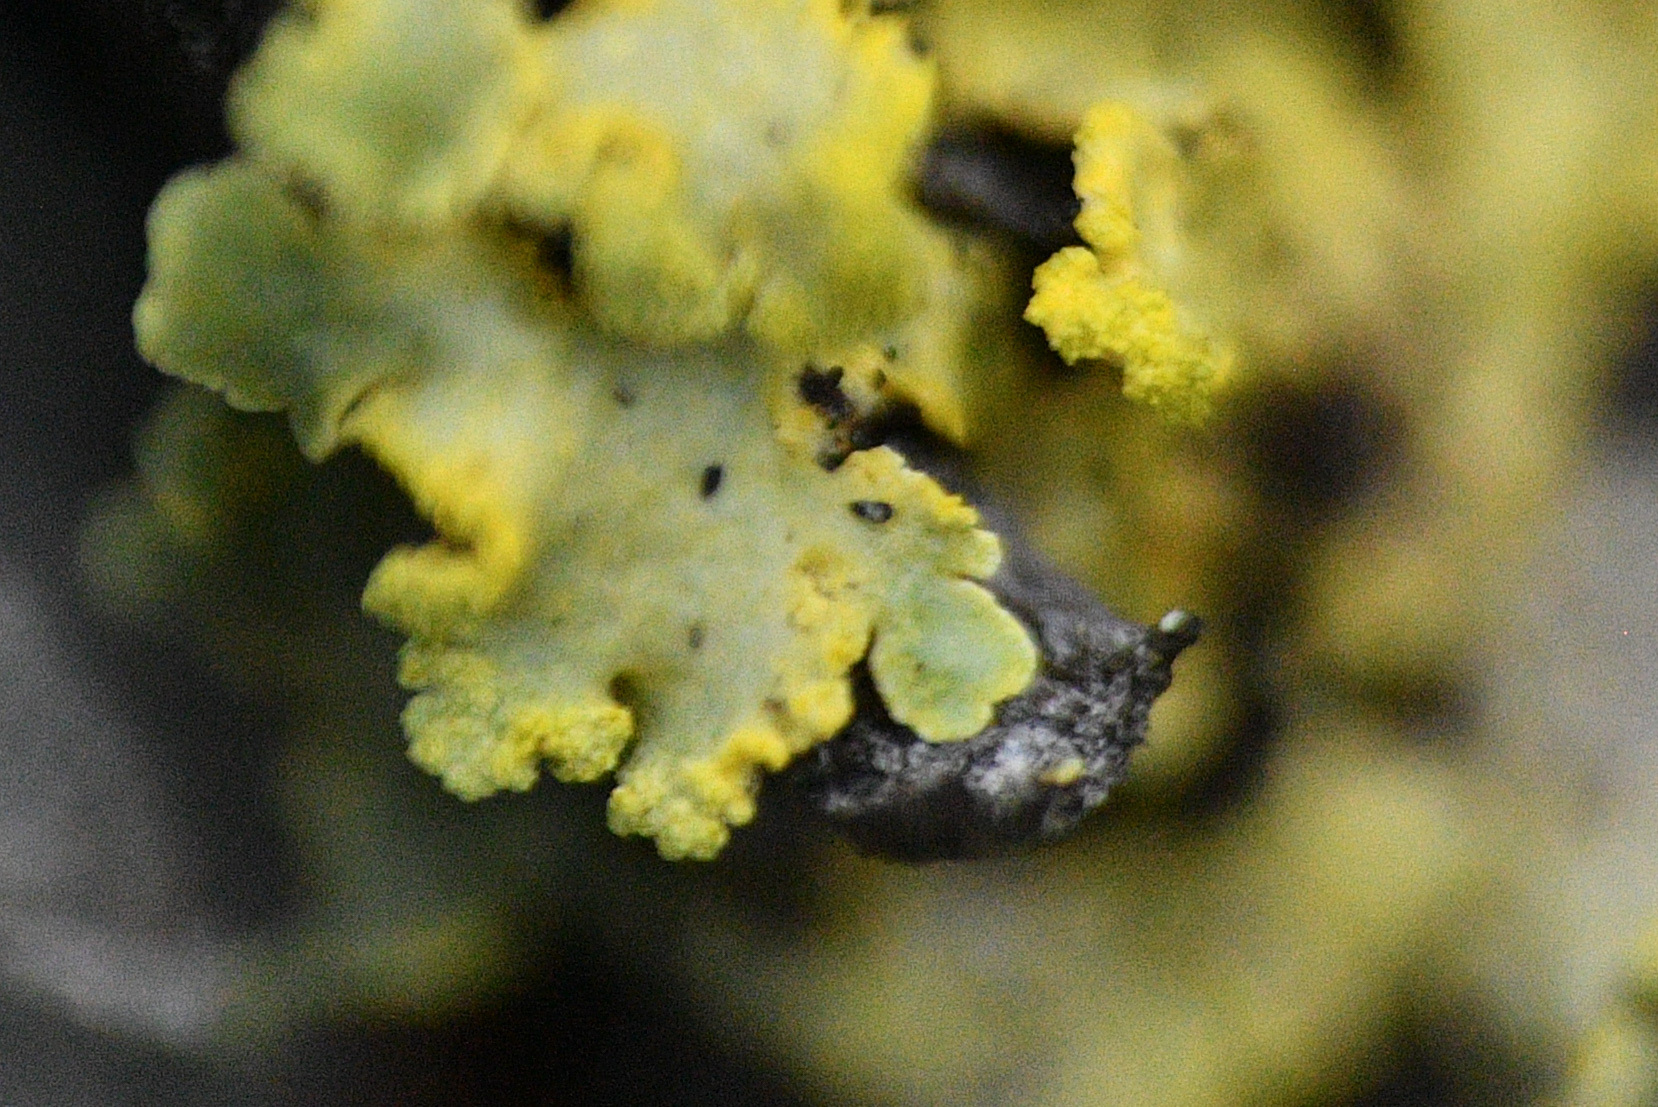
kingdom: Fungi
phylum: Ascomycota
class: Lecanoromycetes
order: Lecanorales
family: Parmeliaceae
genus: Vulpicida
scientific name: Vulpicida pinastri
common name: Powdered sunshine lichen
